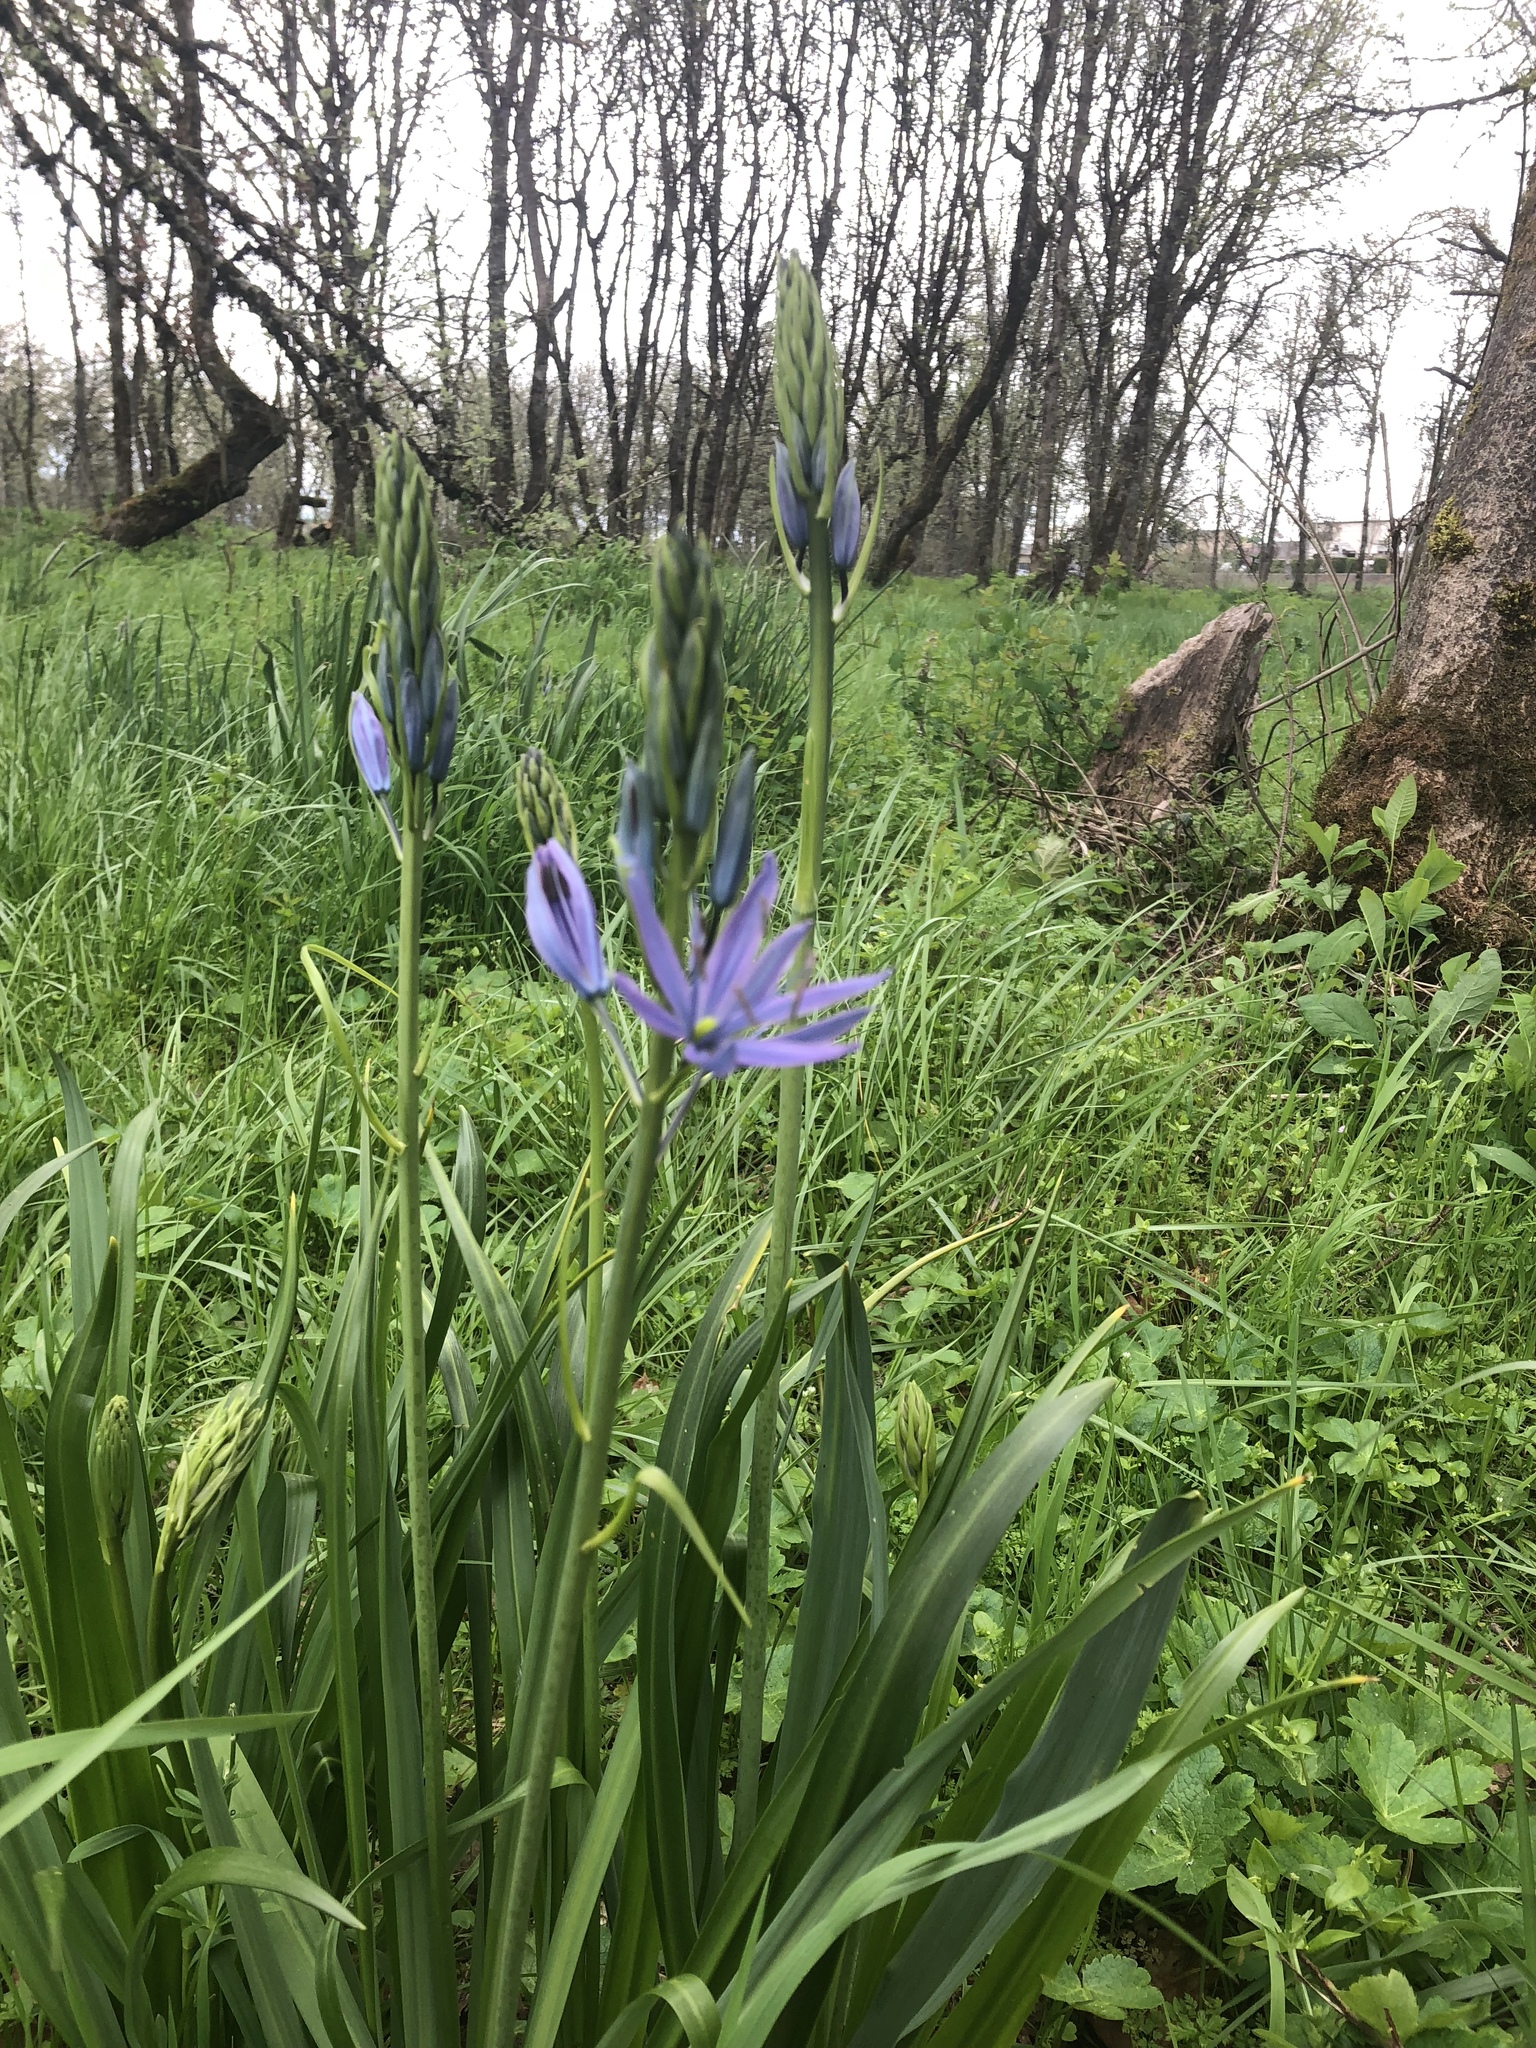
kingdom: Plantae
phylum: Tracheophyta
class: Liliopsida
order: Asparagales
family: Asparagaceae
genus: Camassia
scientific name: Camassia leichtlinii
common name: Leichtlin's camas
